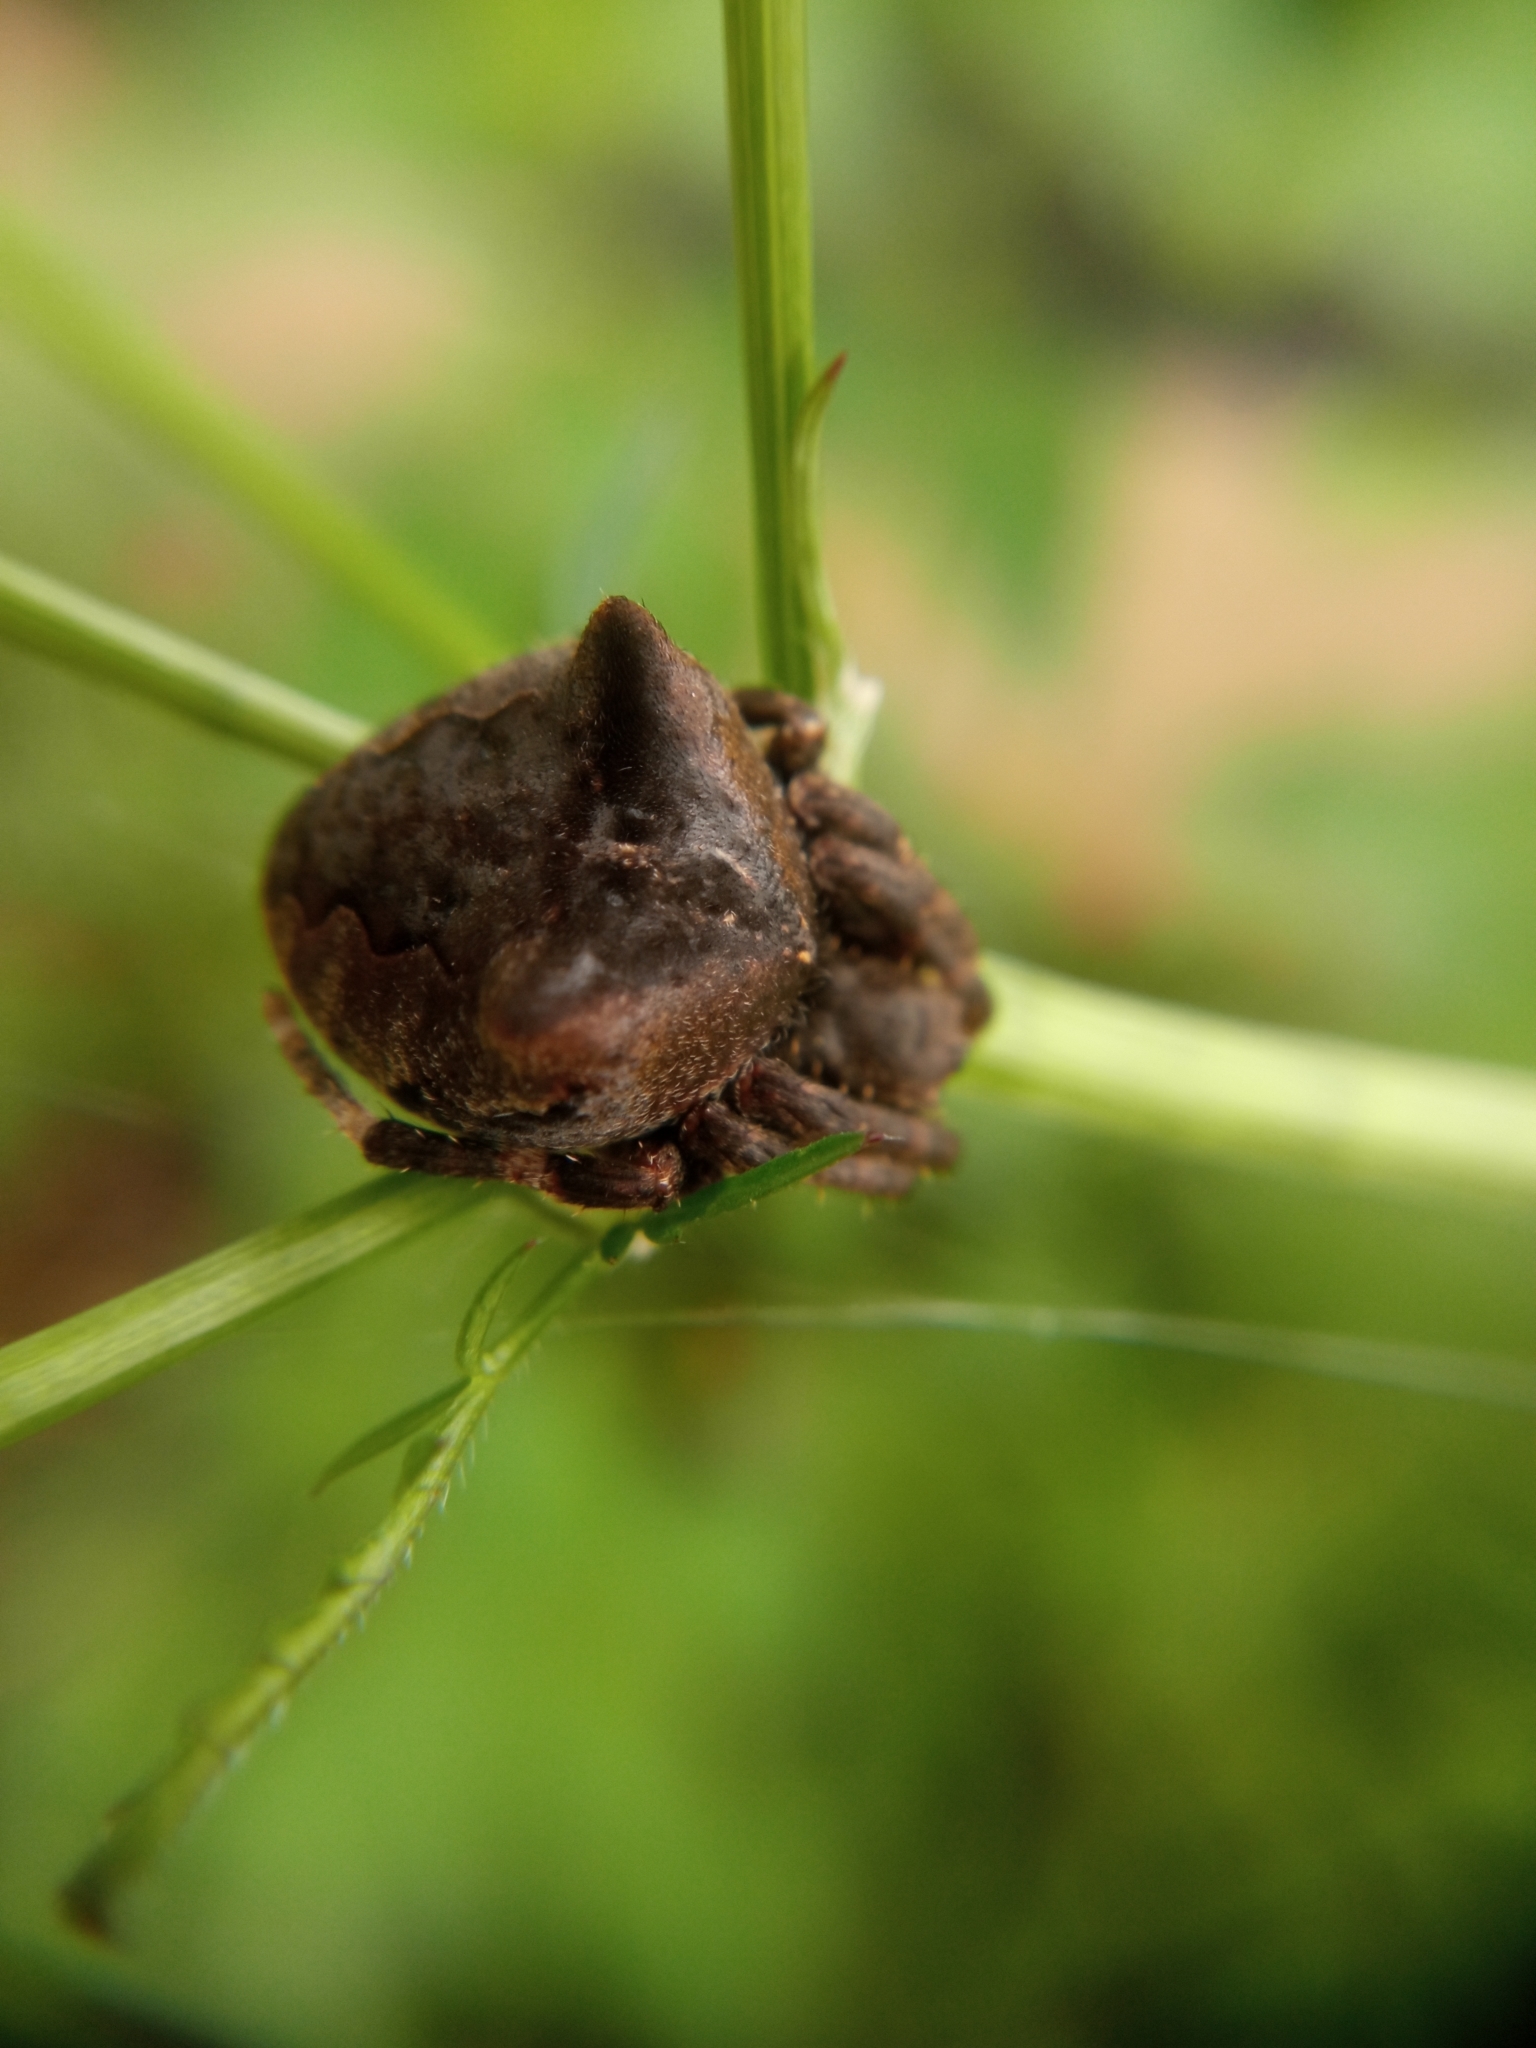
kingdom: Animalia
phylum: Arthropoda
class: Arachnida
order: Araneae
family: Araneidae
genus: Araneus
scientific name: Araneus angulatus
